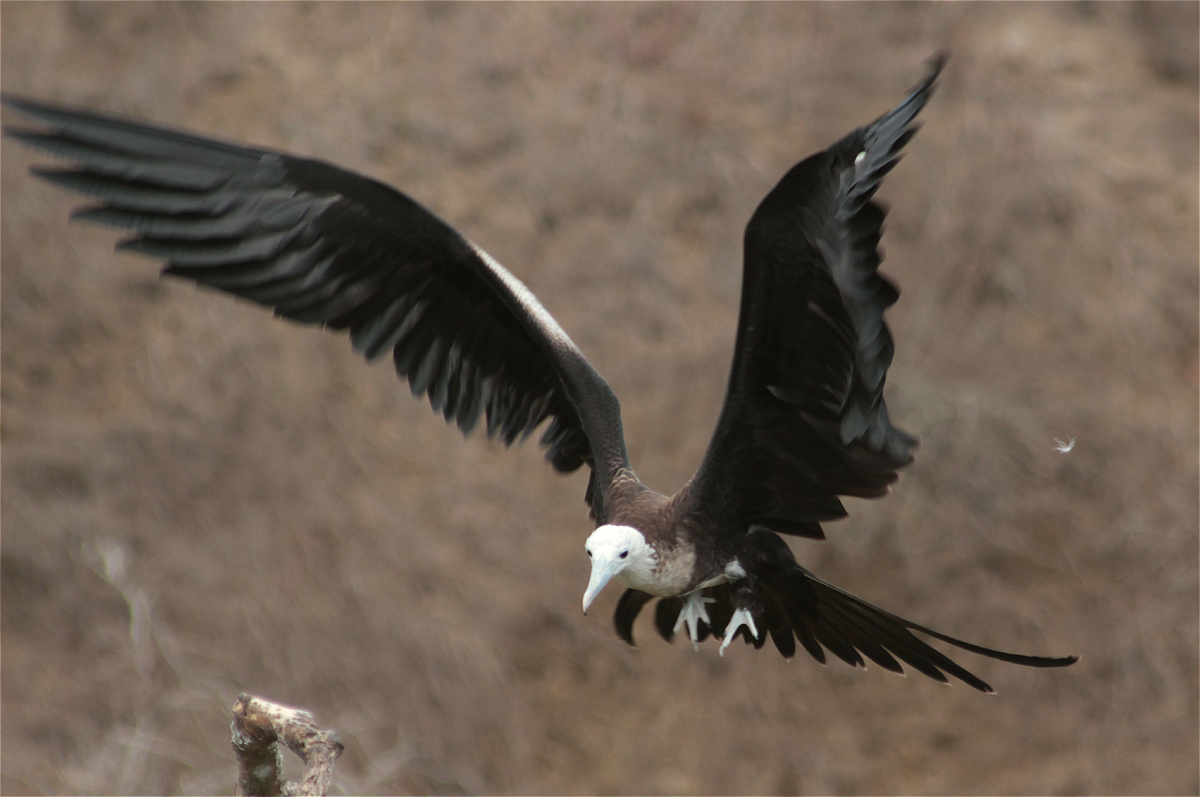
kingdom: Animalia
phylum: Chordata
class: Aves
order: Suliformes
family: Fregatidae
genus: Fregata
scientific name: Fregata magnificens
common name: Magnificent frigatebird
